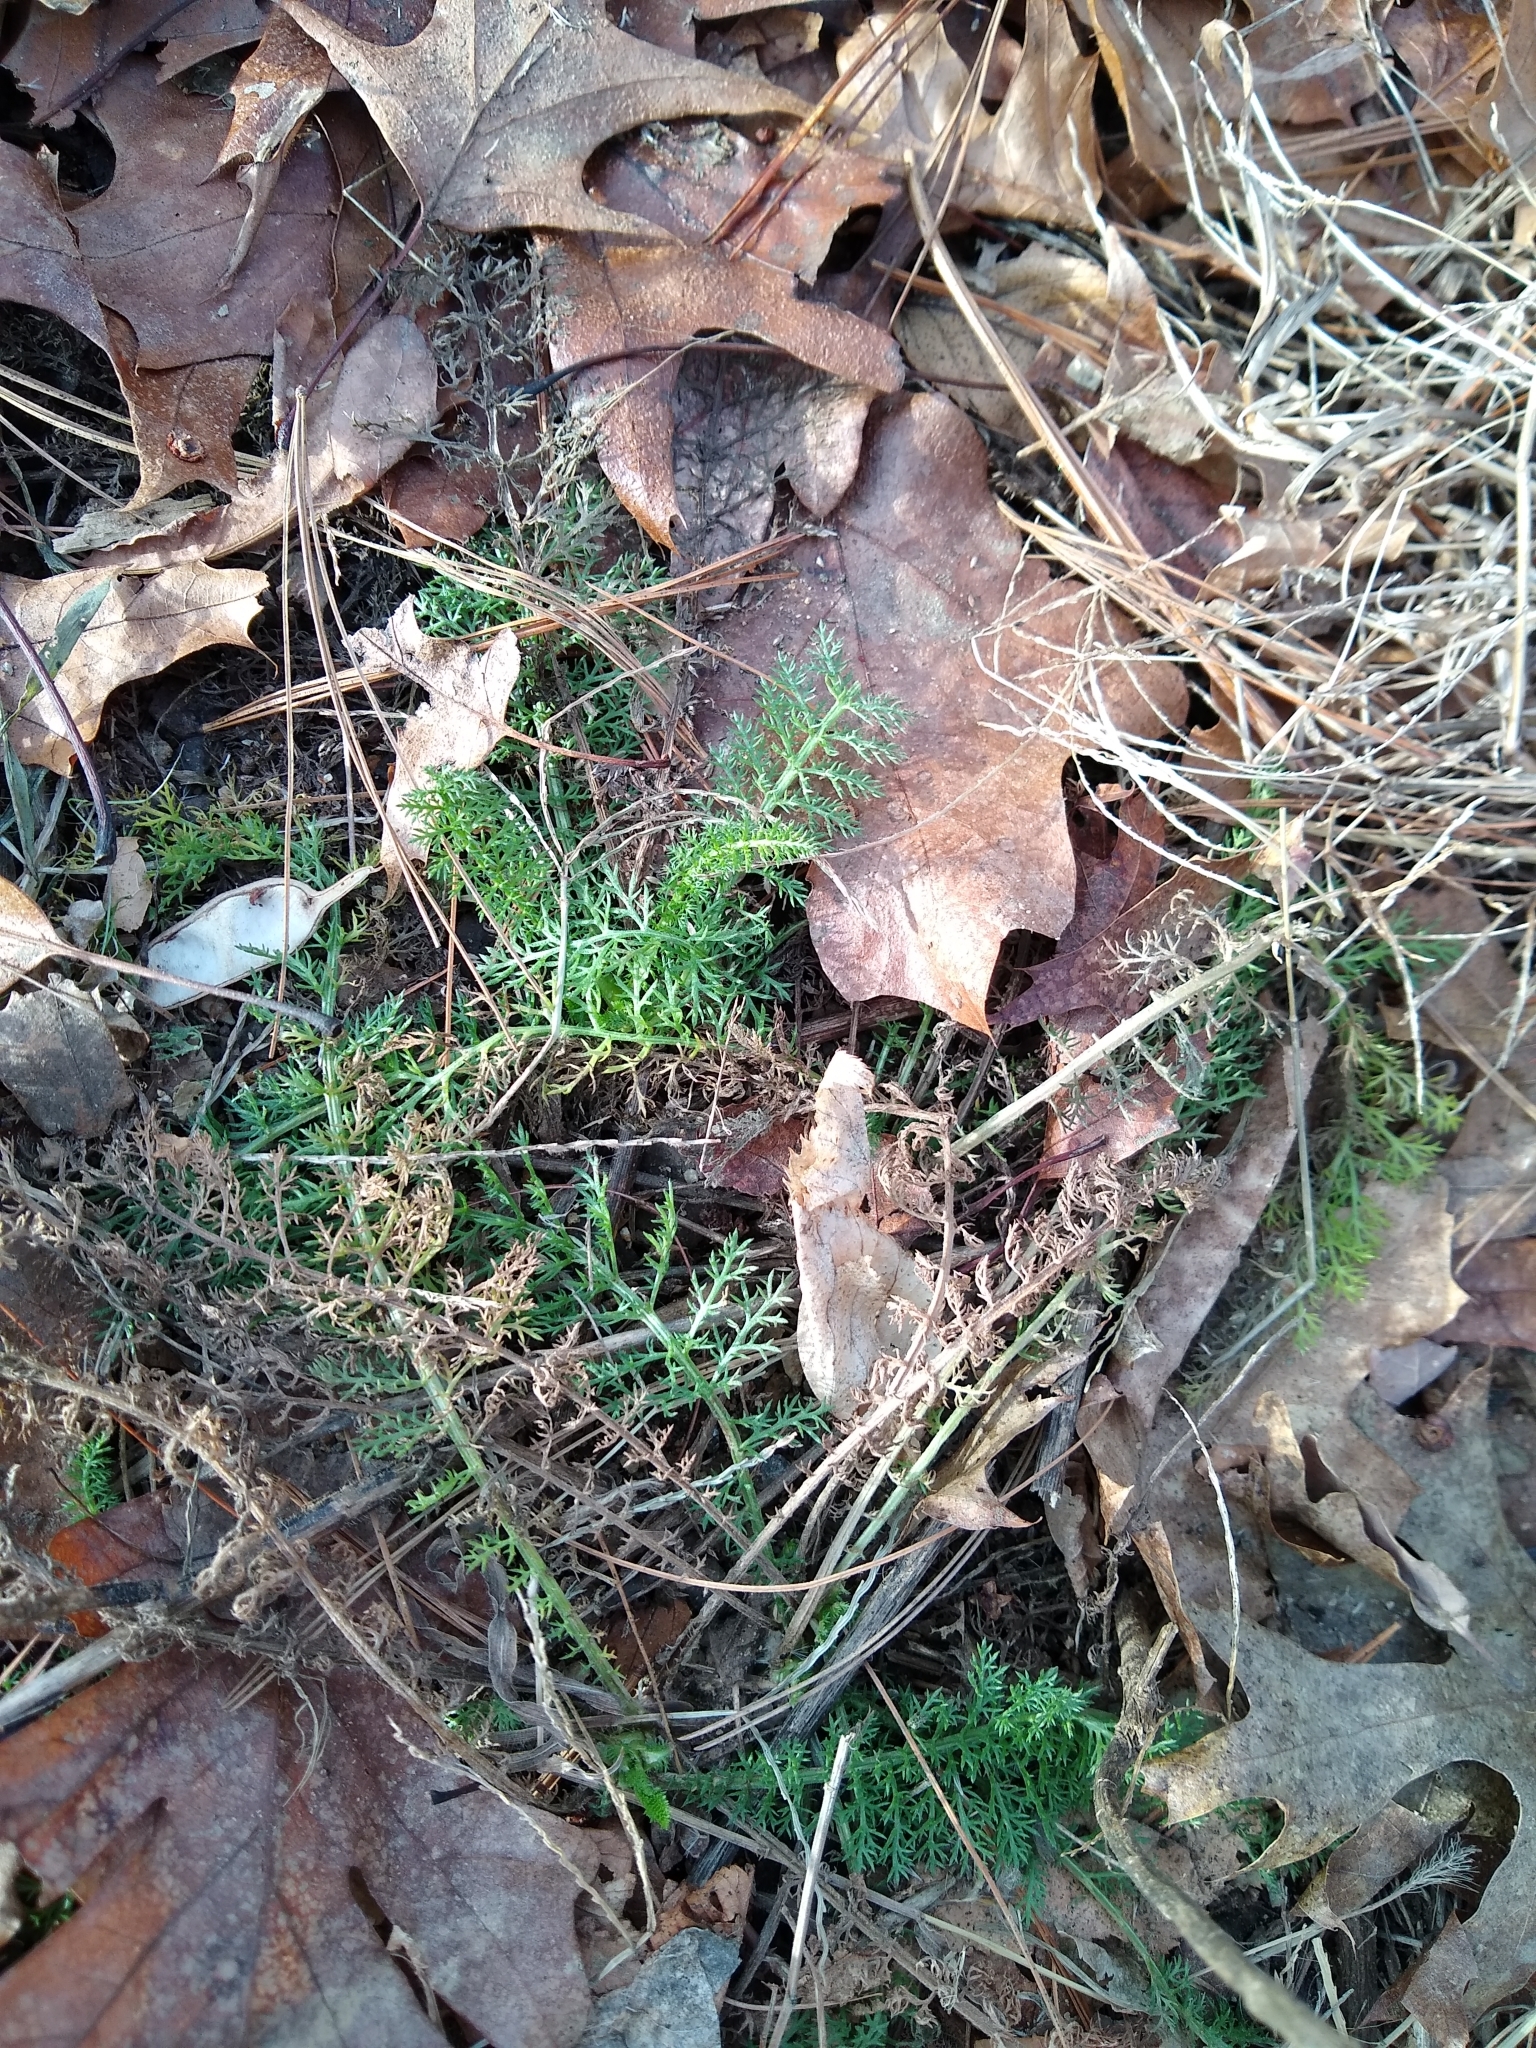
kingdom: Plantae
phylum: Tracheophyta
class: Magnoliopsida
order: Asterales
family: Asteraceae
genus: Achillea
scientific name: Achillea millefolium
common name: Yarrow
